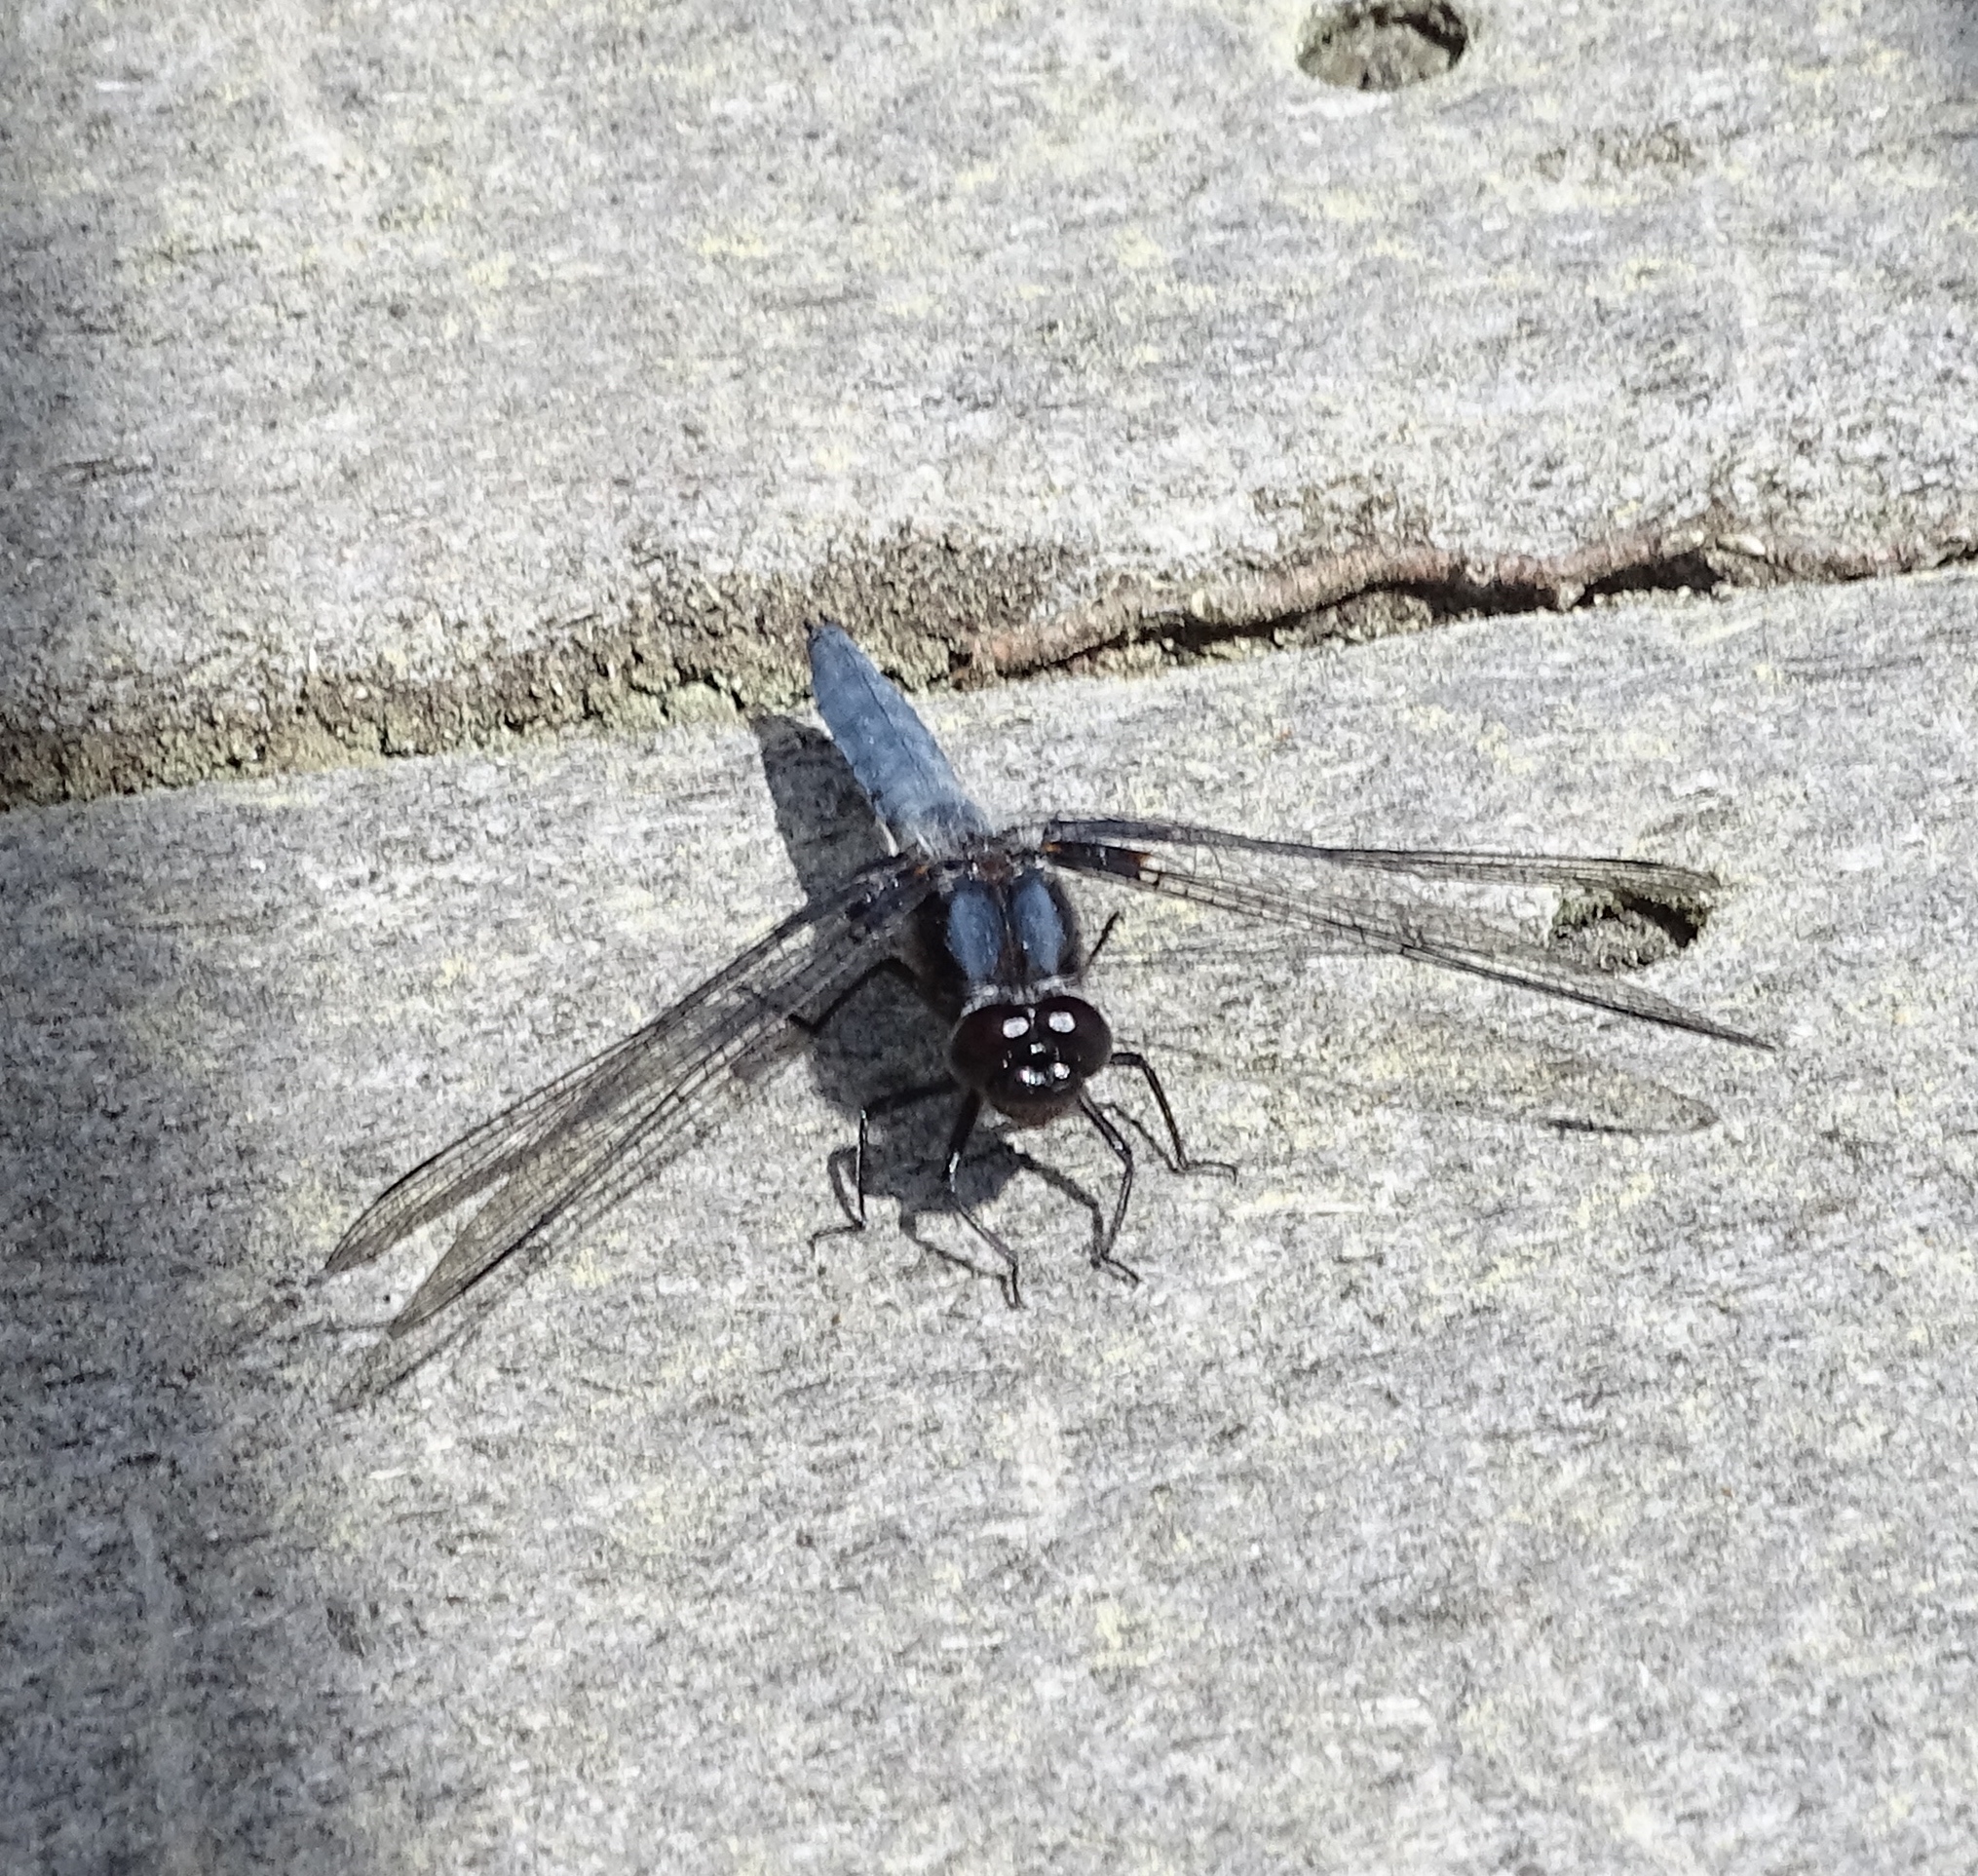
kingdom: Animalia
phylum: Arthropoda
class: Insecta
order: Odonata
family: Libellulidae
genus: Ladona
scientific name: Ladona deplanata
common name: Blue corporal
